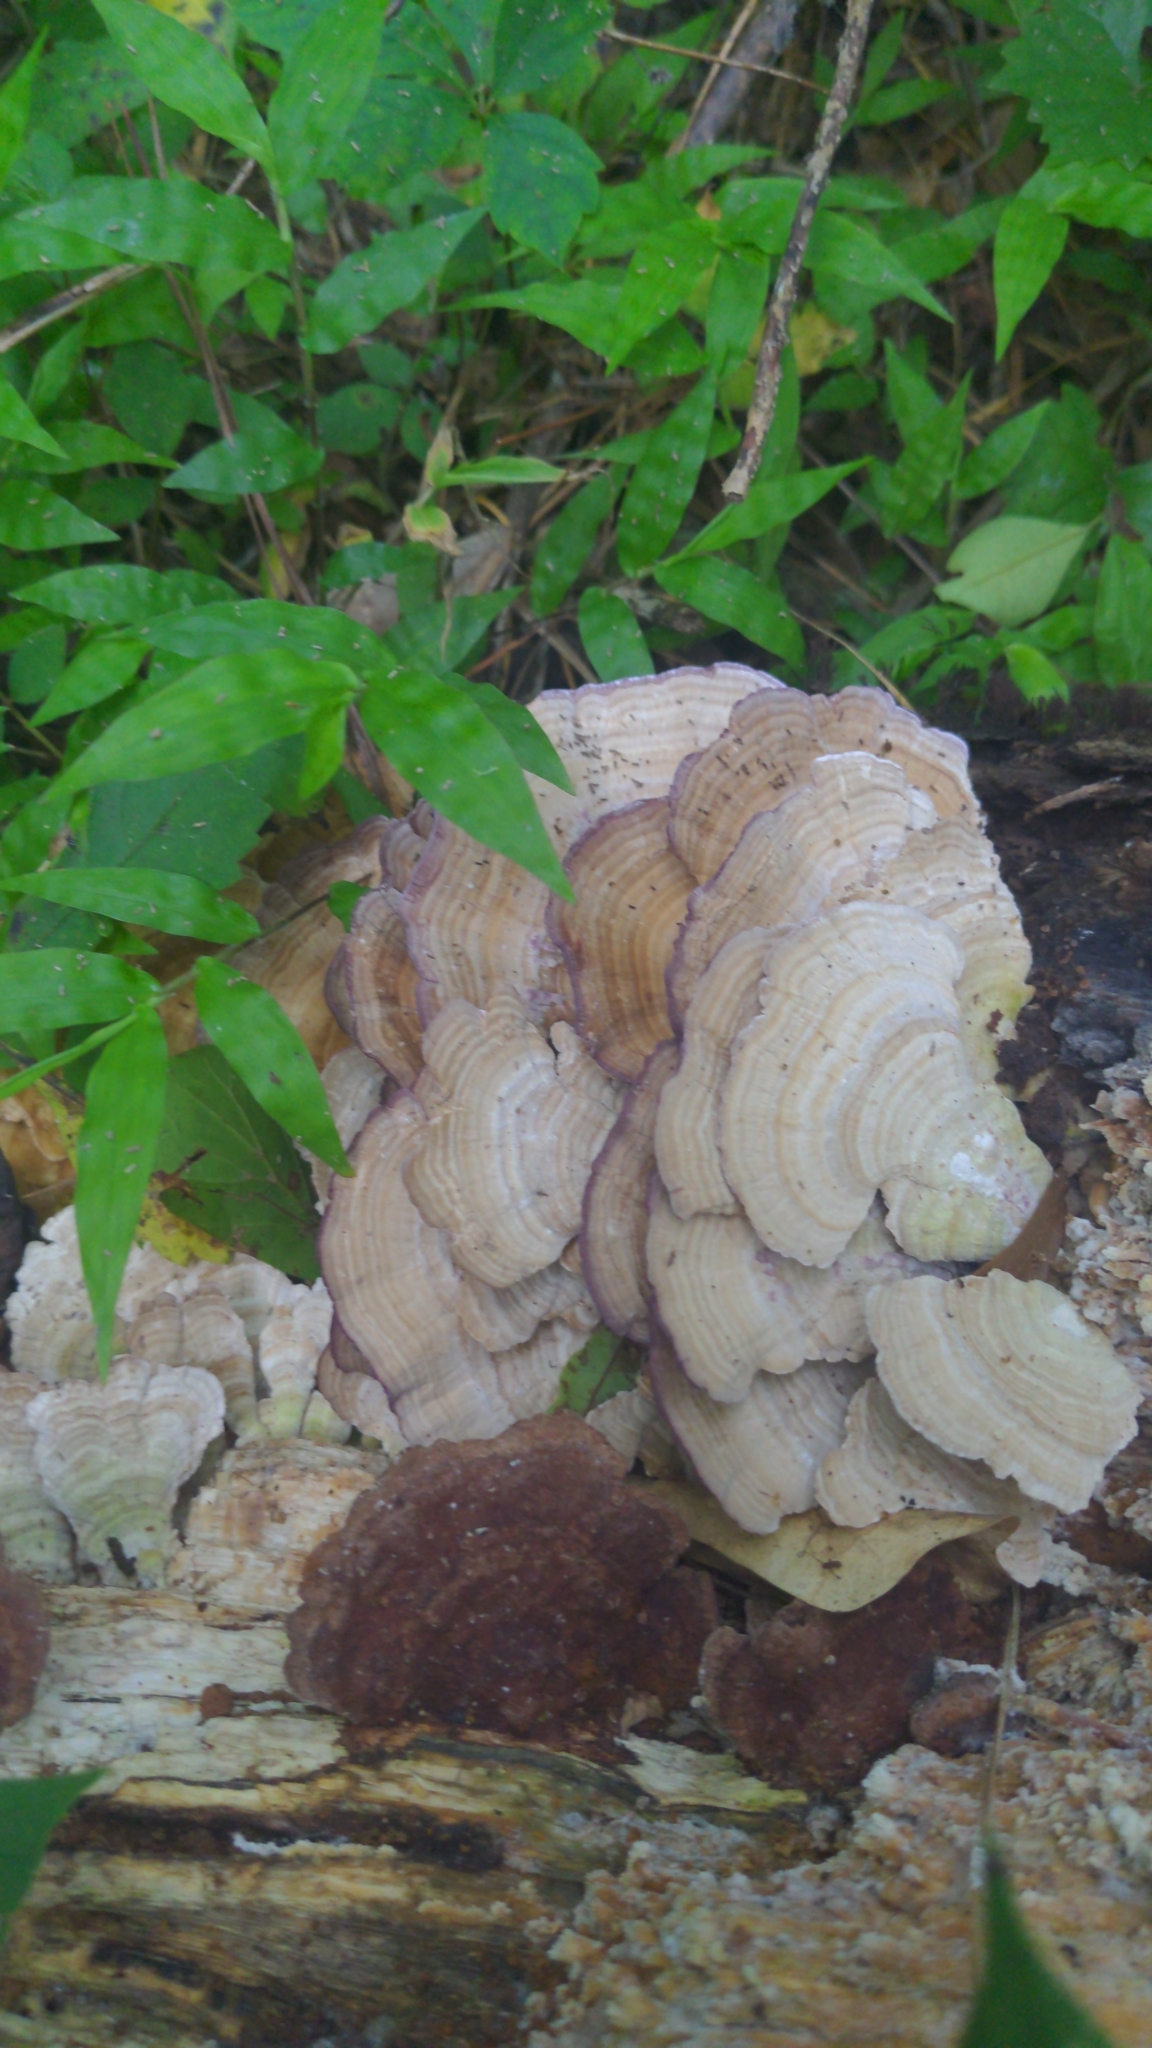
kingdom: Fungi
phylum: Basidiomycota
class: Agaricomycetes
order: Hymenochaetales
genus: Trichaptum
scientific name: Trichaptum biforme
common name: Violet-toothed polypore
